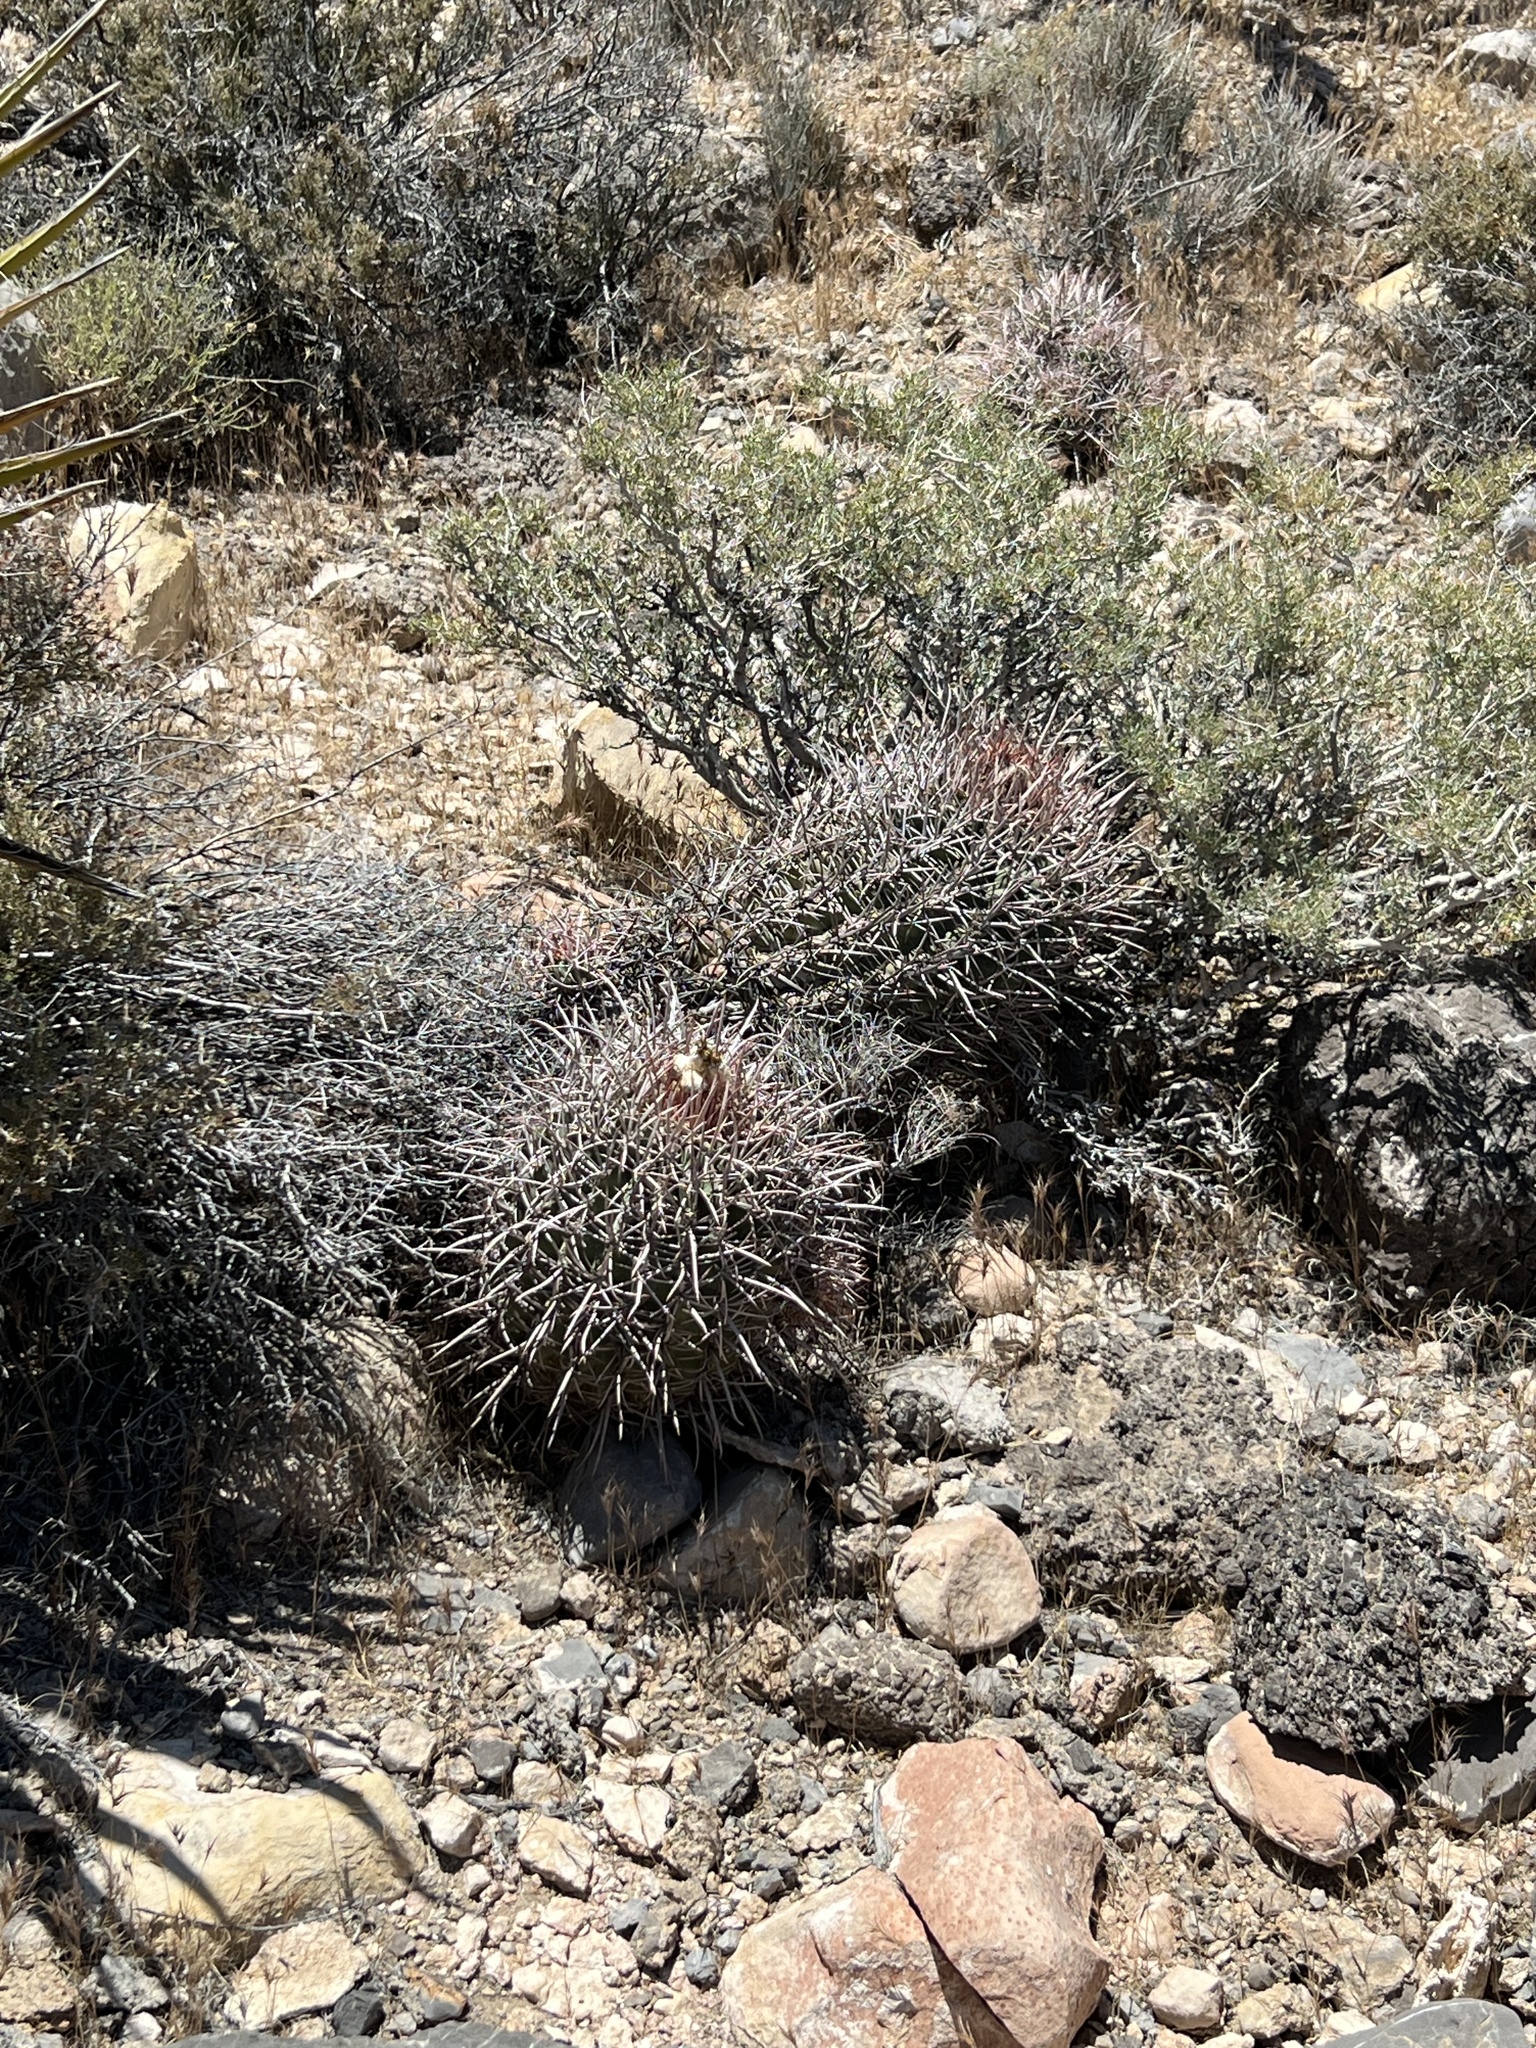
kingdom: Plantae
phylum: Tracheophyta
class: Magnoliopsida
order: Caryophyllales
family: Cactaceae
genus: Echinocactus
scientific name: Echinocactus polycephalus
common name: Cottontop cactus
